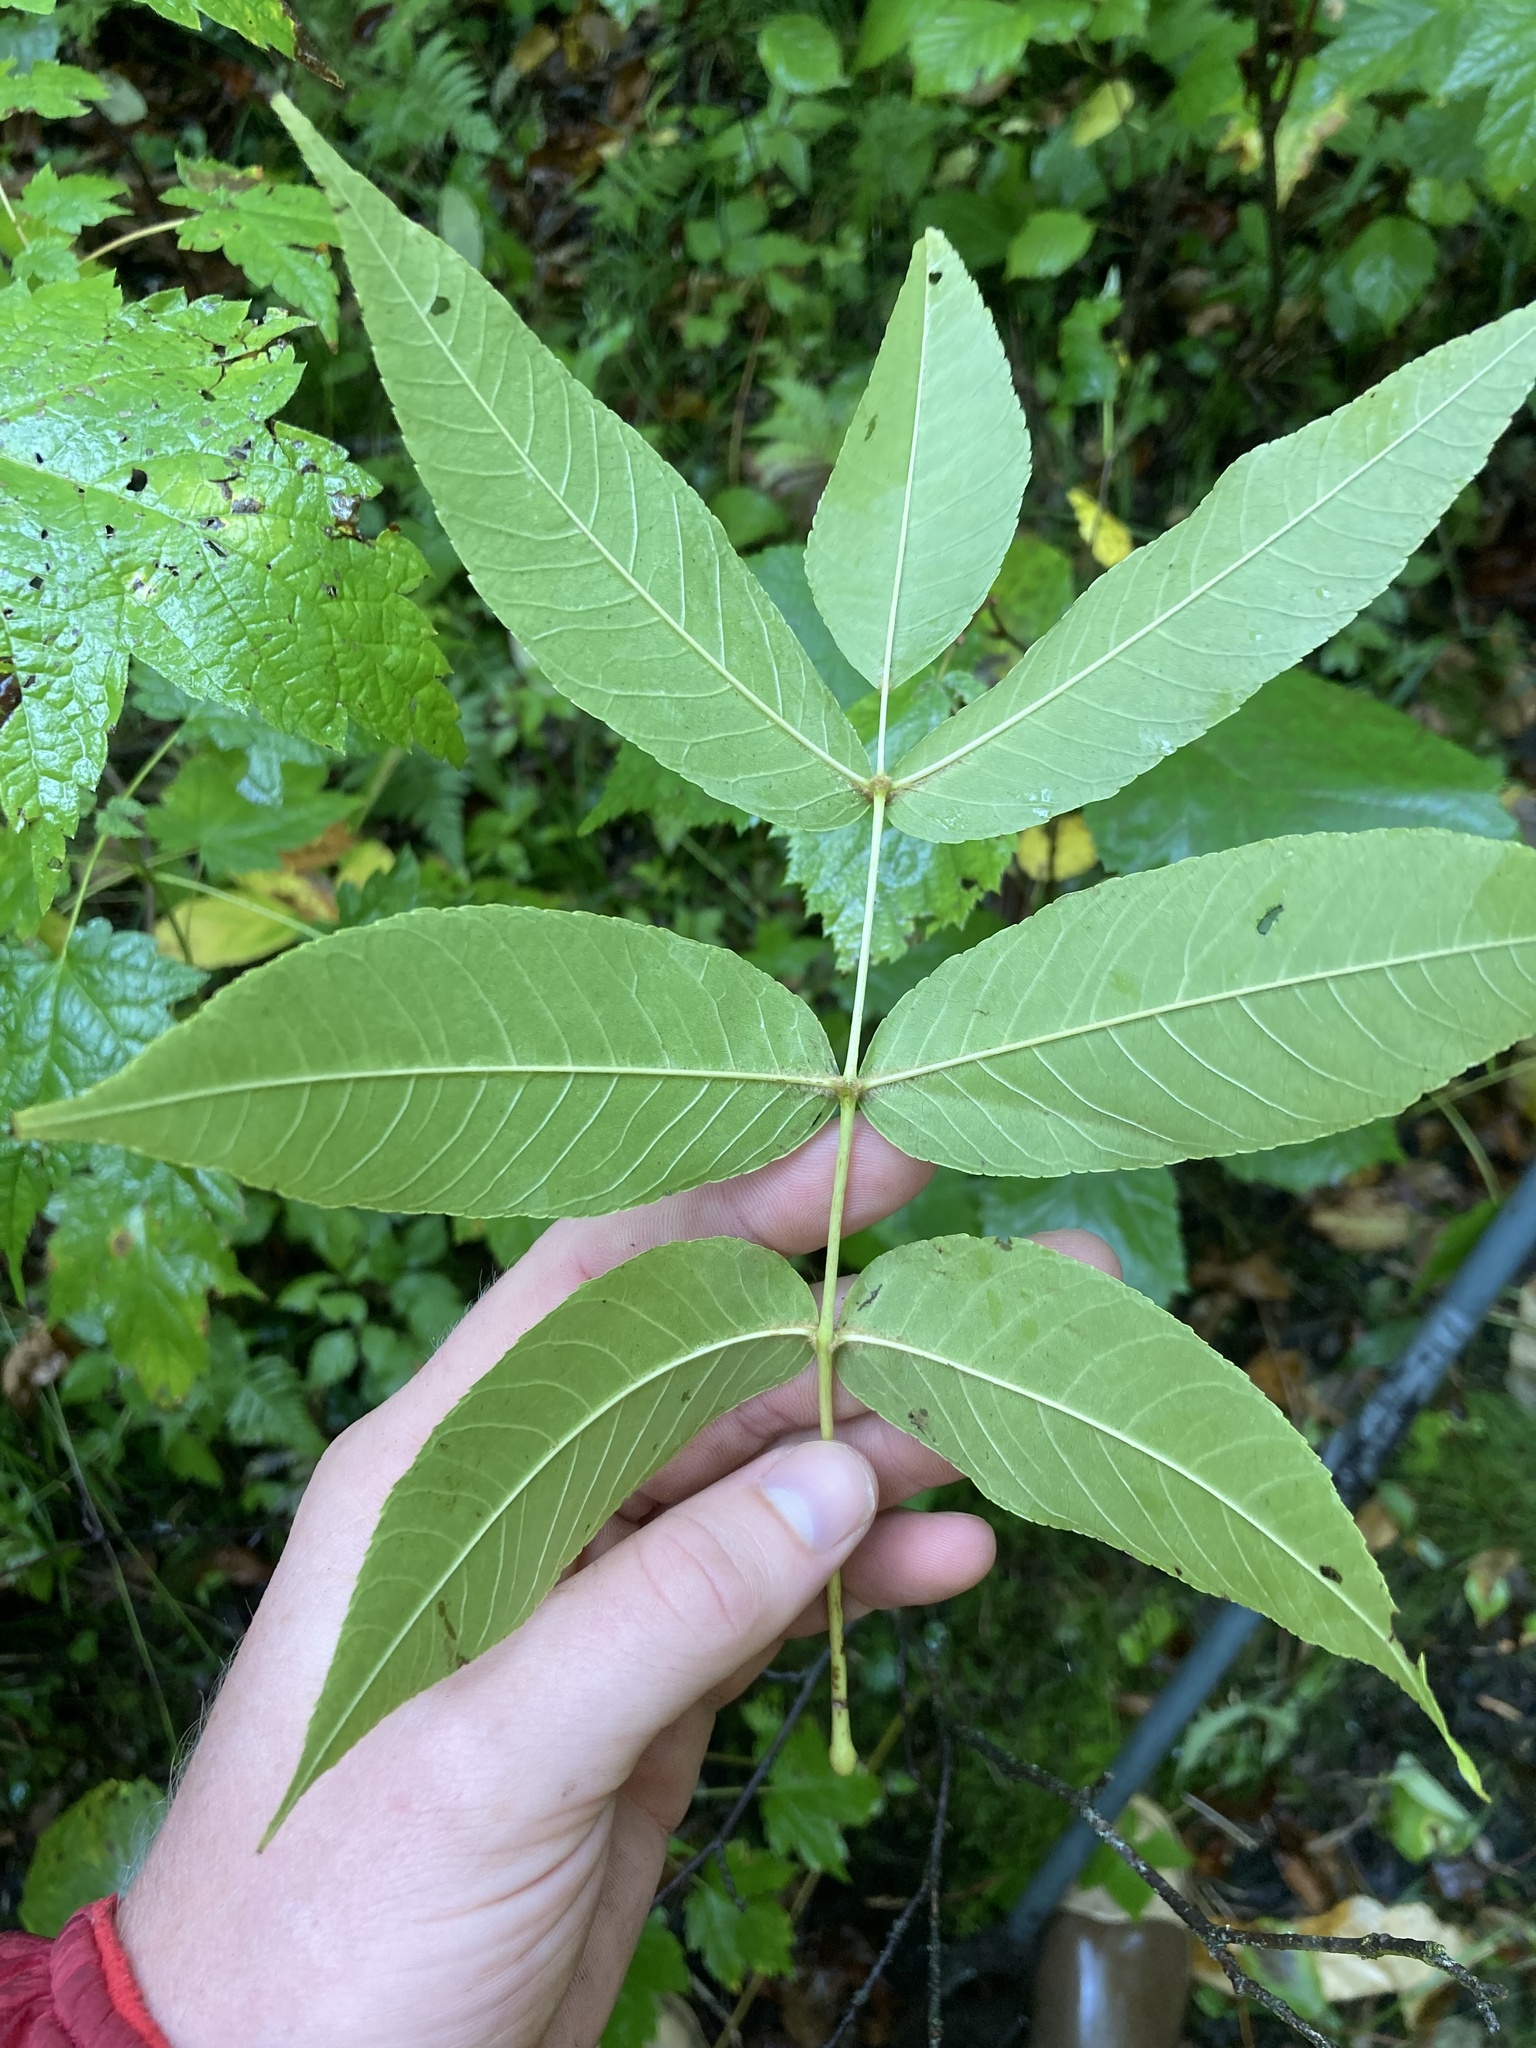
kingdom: Plantae
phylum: Tracheophyta
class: Magnoliopsida
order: Lamiales
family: Oleaceae
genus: Fraxinus
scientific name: Fraxinus nigra
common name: Black ash
